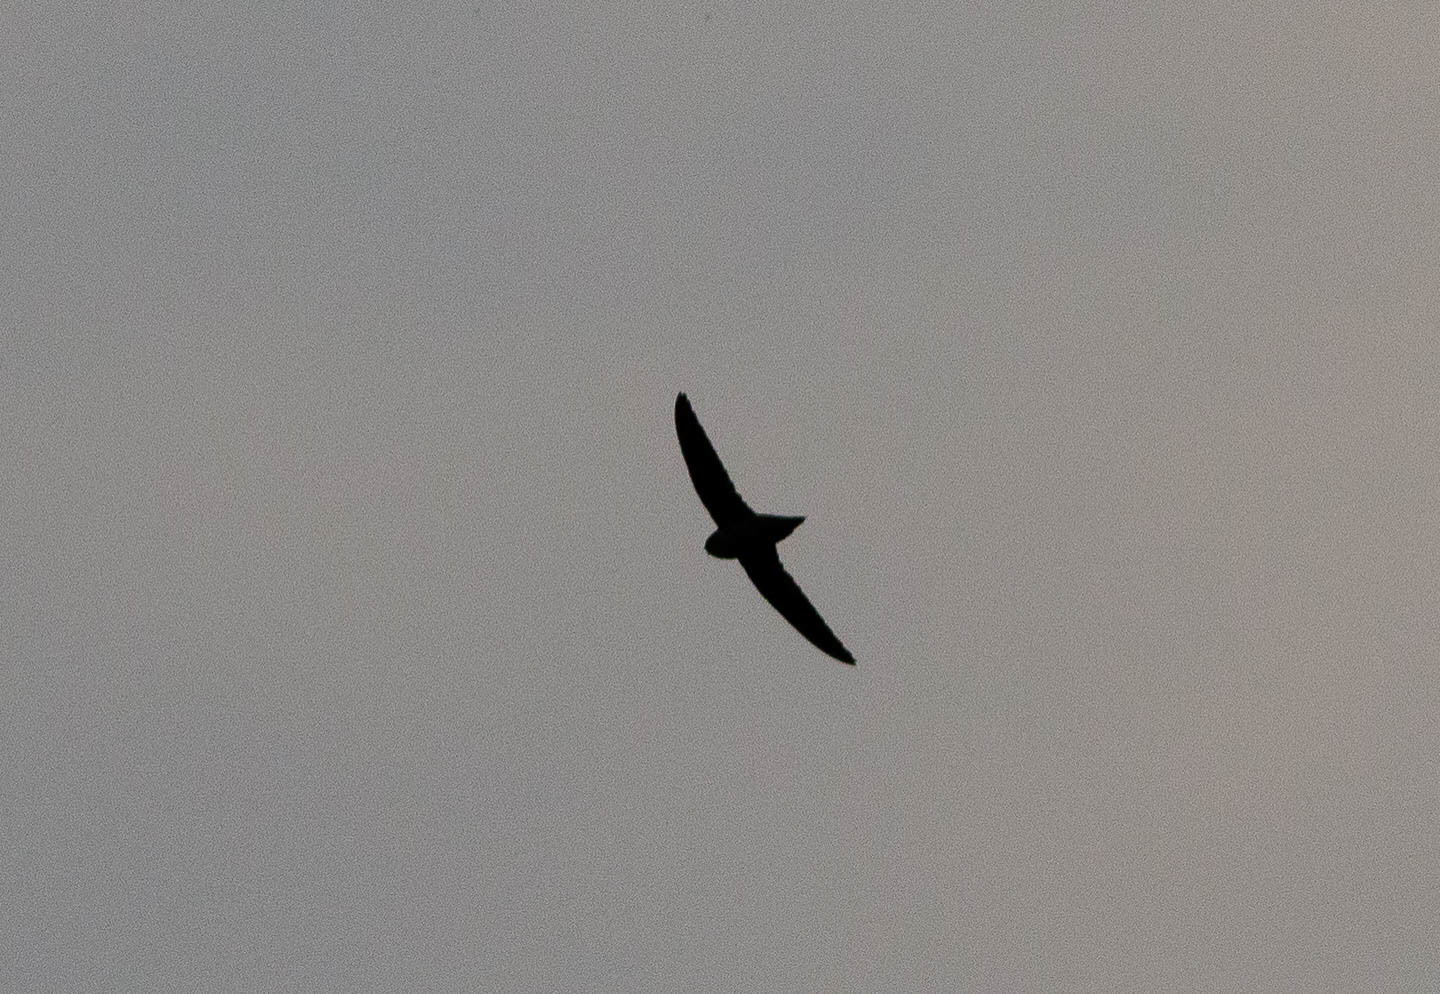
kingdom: Animalia
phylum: Chordata
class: Aves
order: Apodiformes
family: Apodidae
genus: Chaetura
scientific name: Chaetura pelagica
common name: Chimney swift
